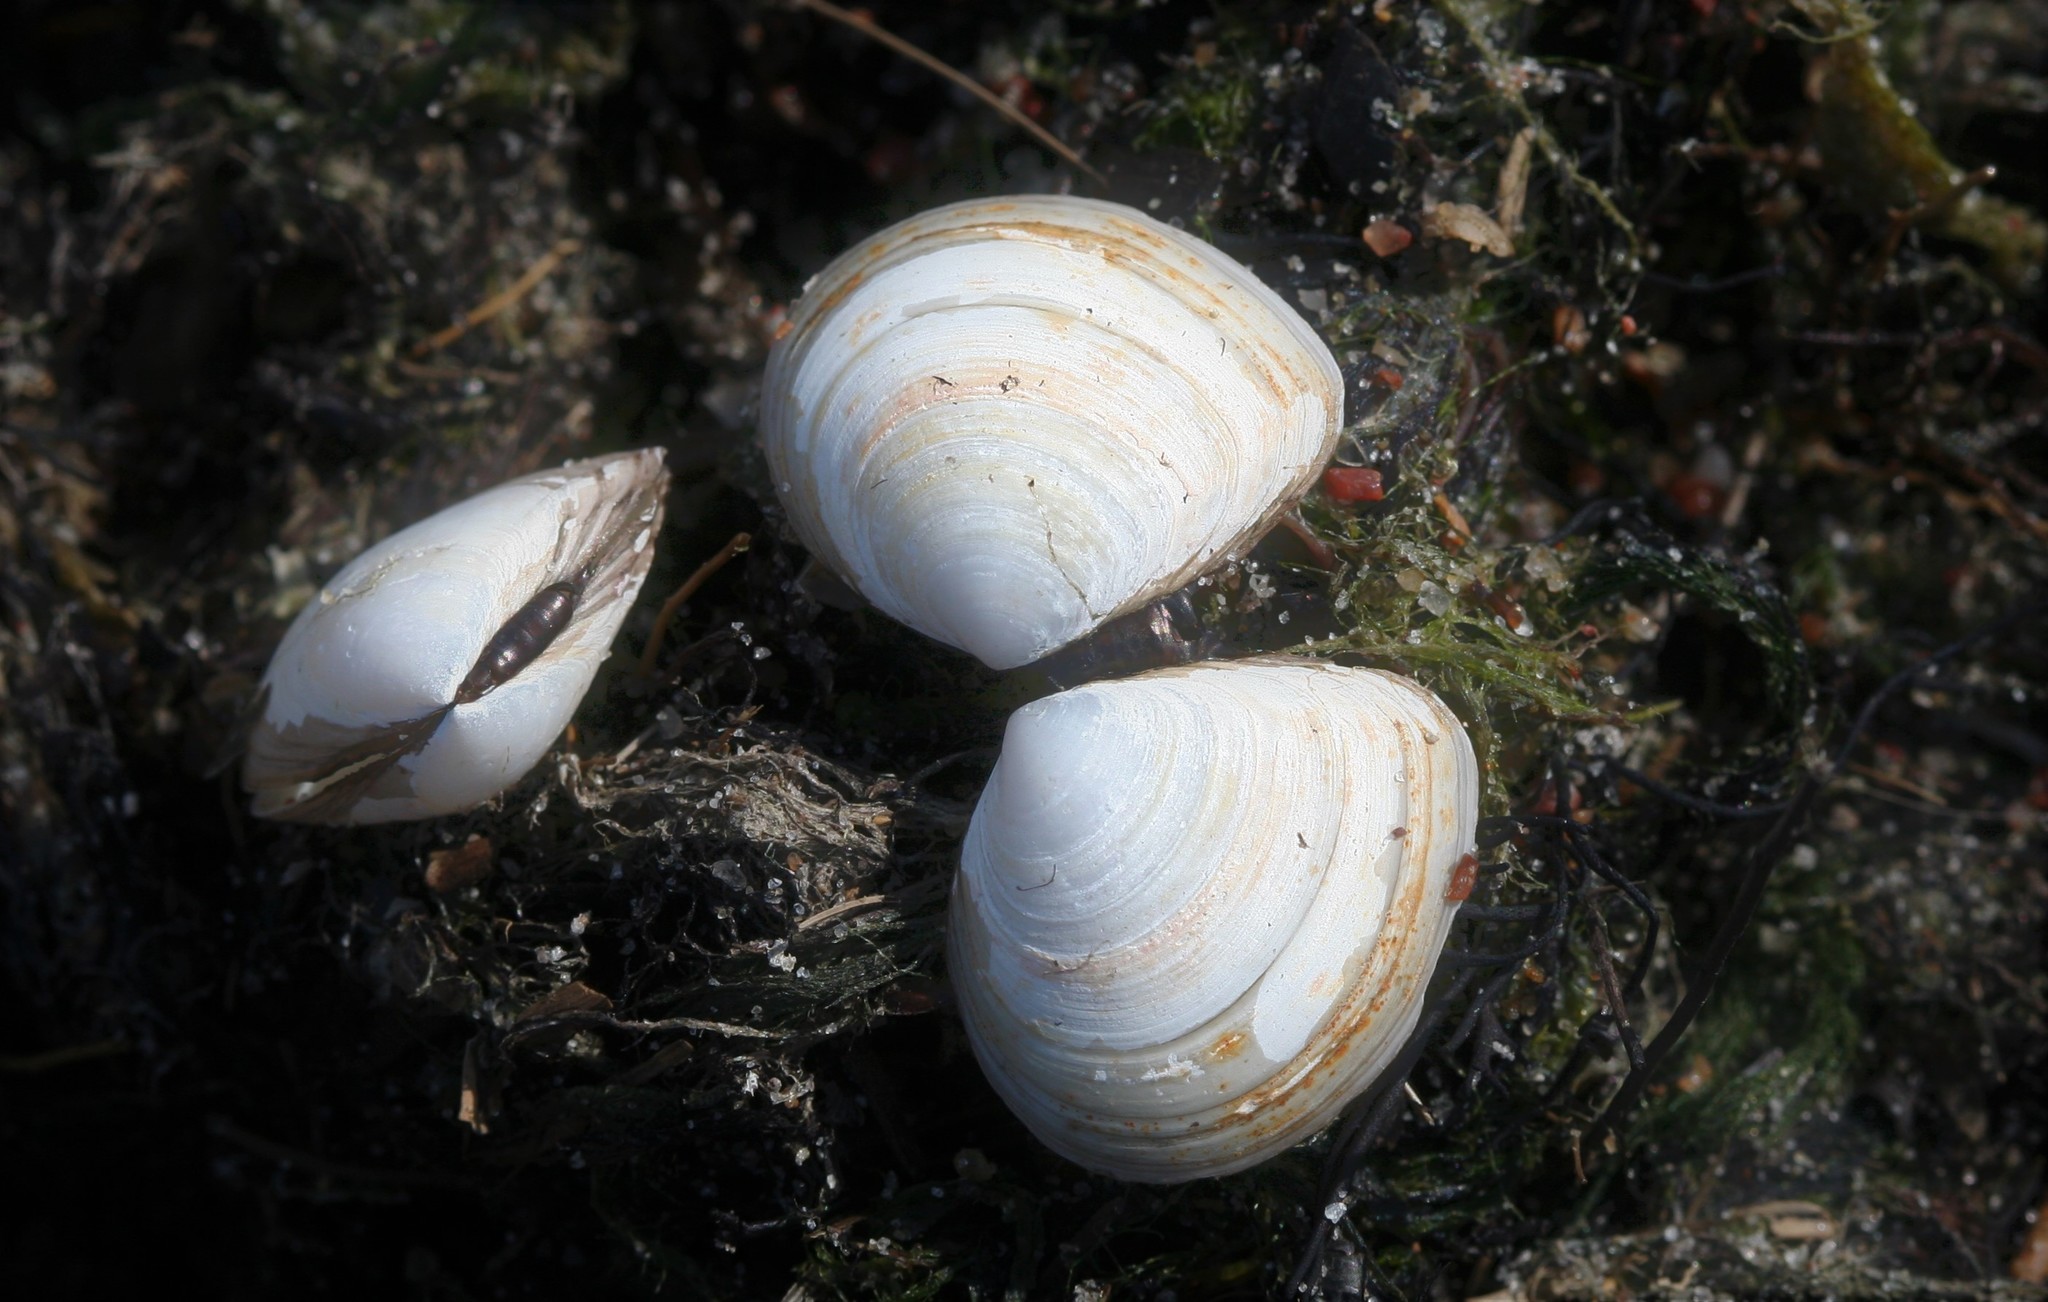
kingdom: Animalia
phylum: Mollusca
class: Bivalvia
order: Cardiida
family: Tellinidae
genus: Macoma
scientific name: Macoma balthica
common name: Baltic tellin
